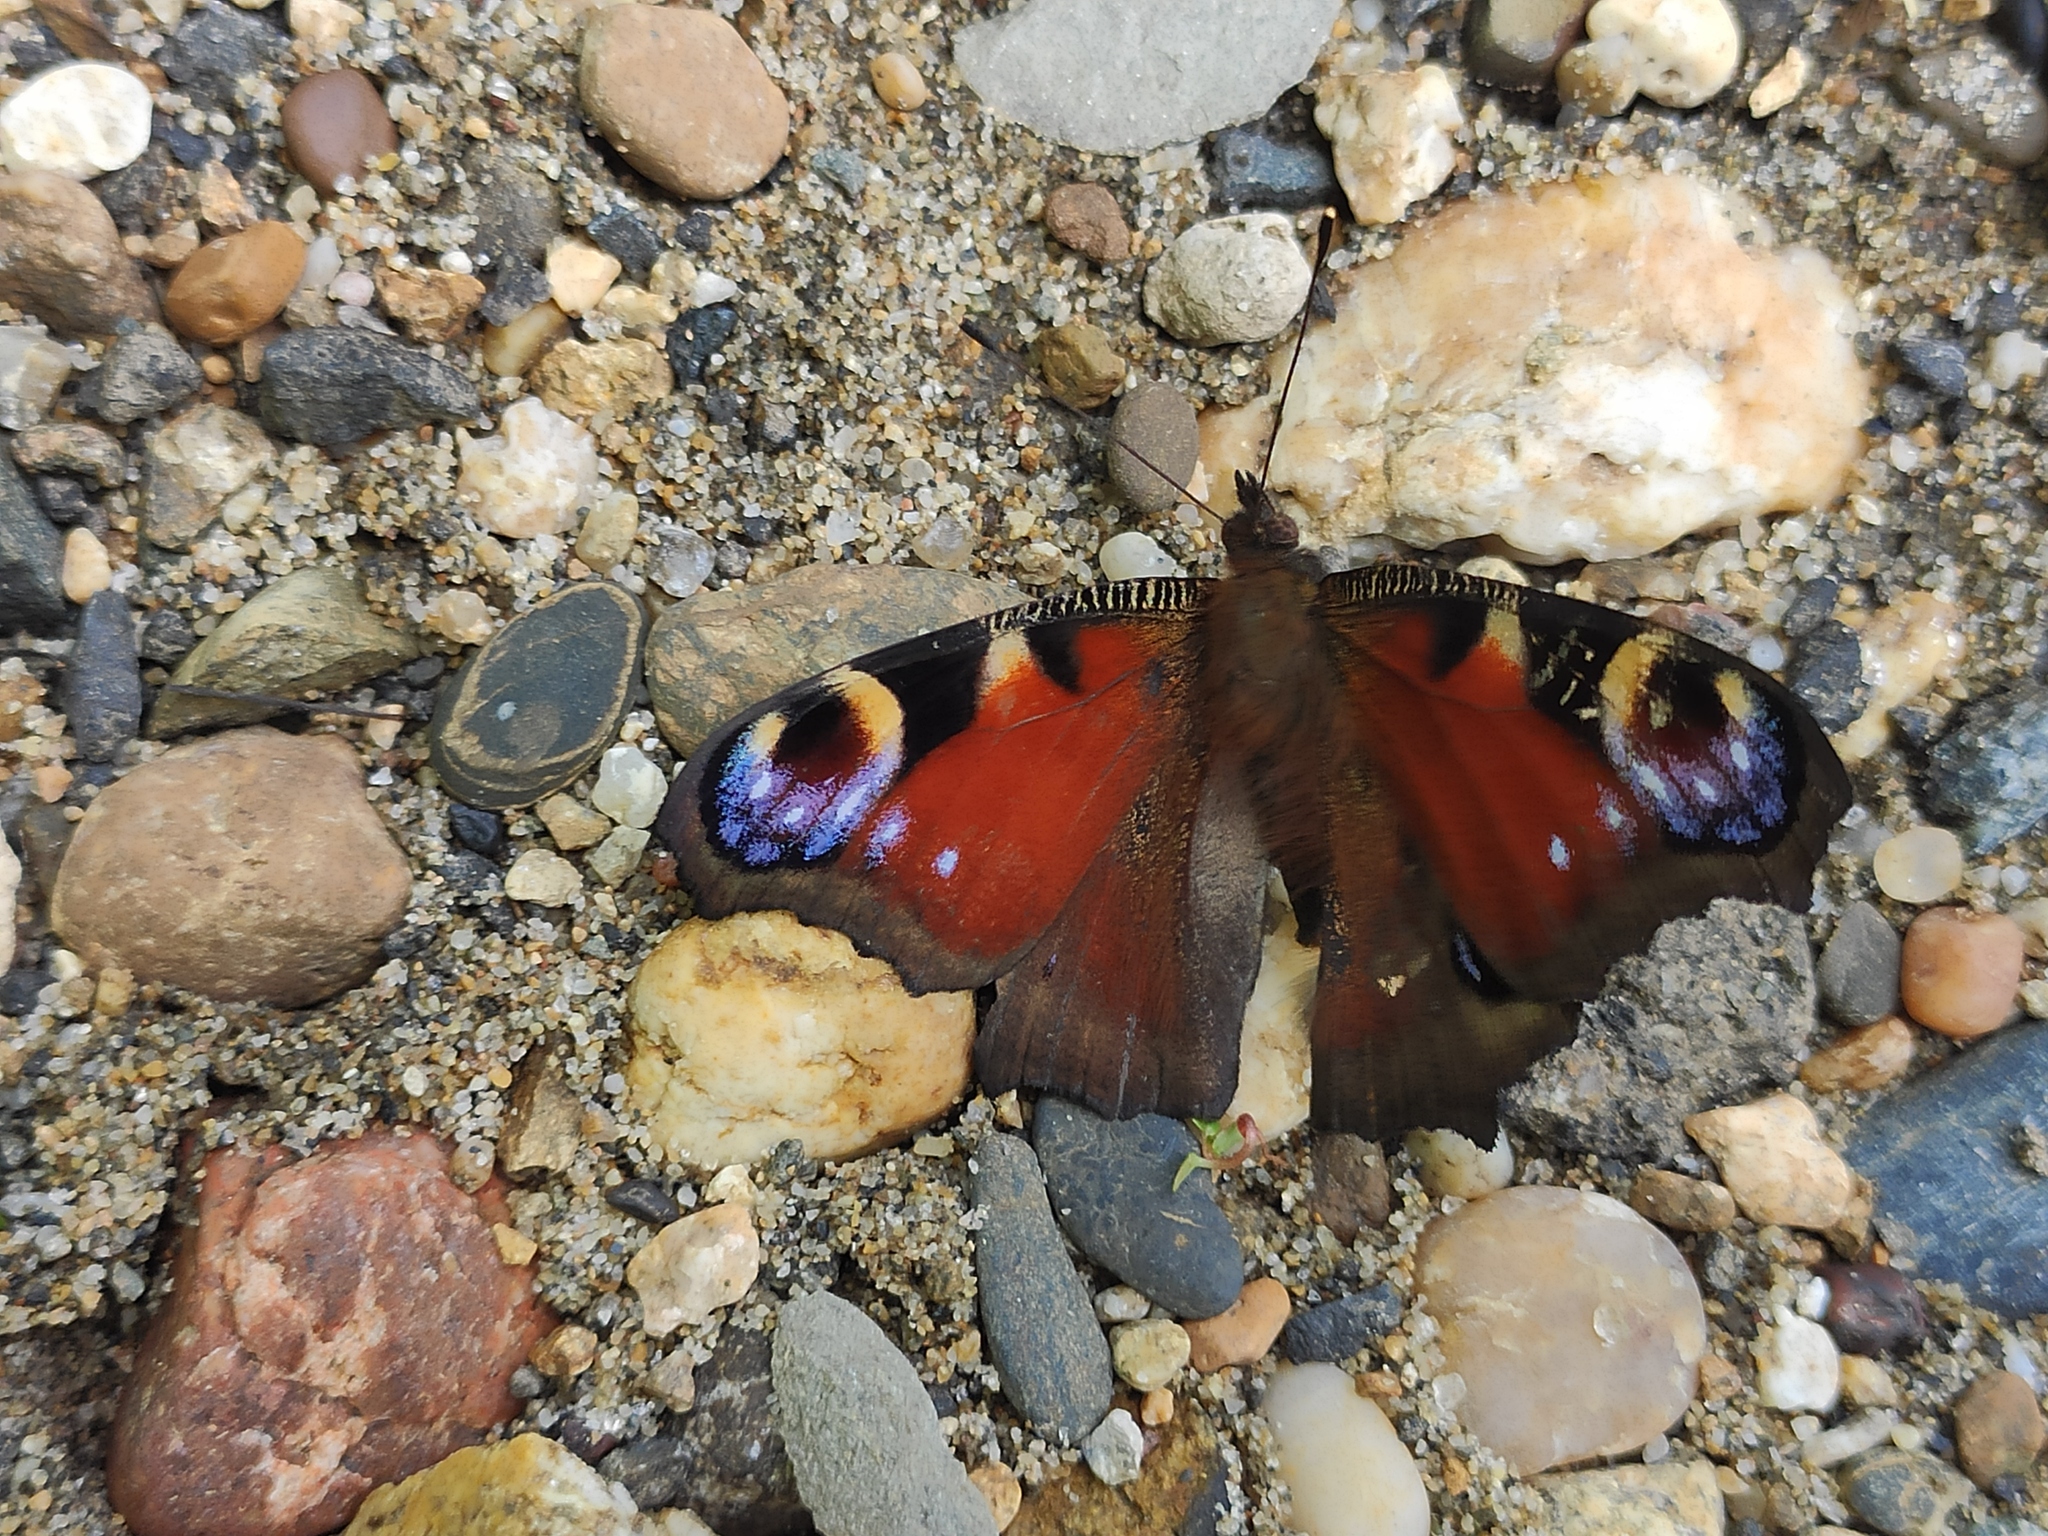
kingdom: Animalia
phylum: Arthropoda
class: Insecta
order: Lepidoptera
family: Nymphalidae
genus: Aglais
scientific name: Aglais io
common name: Peacock
